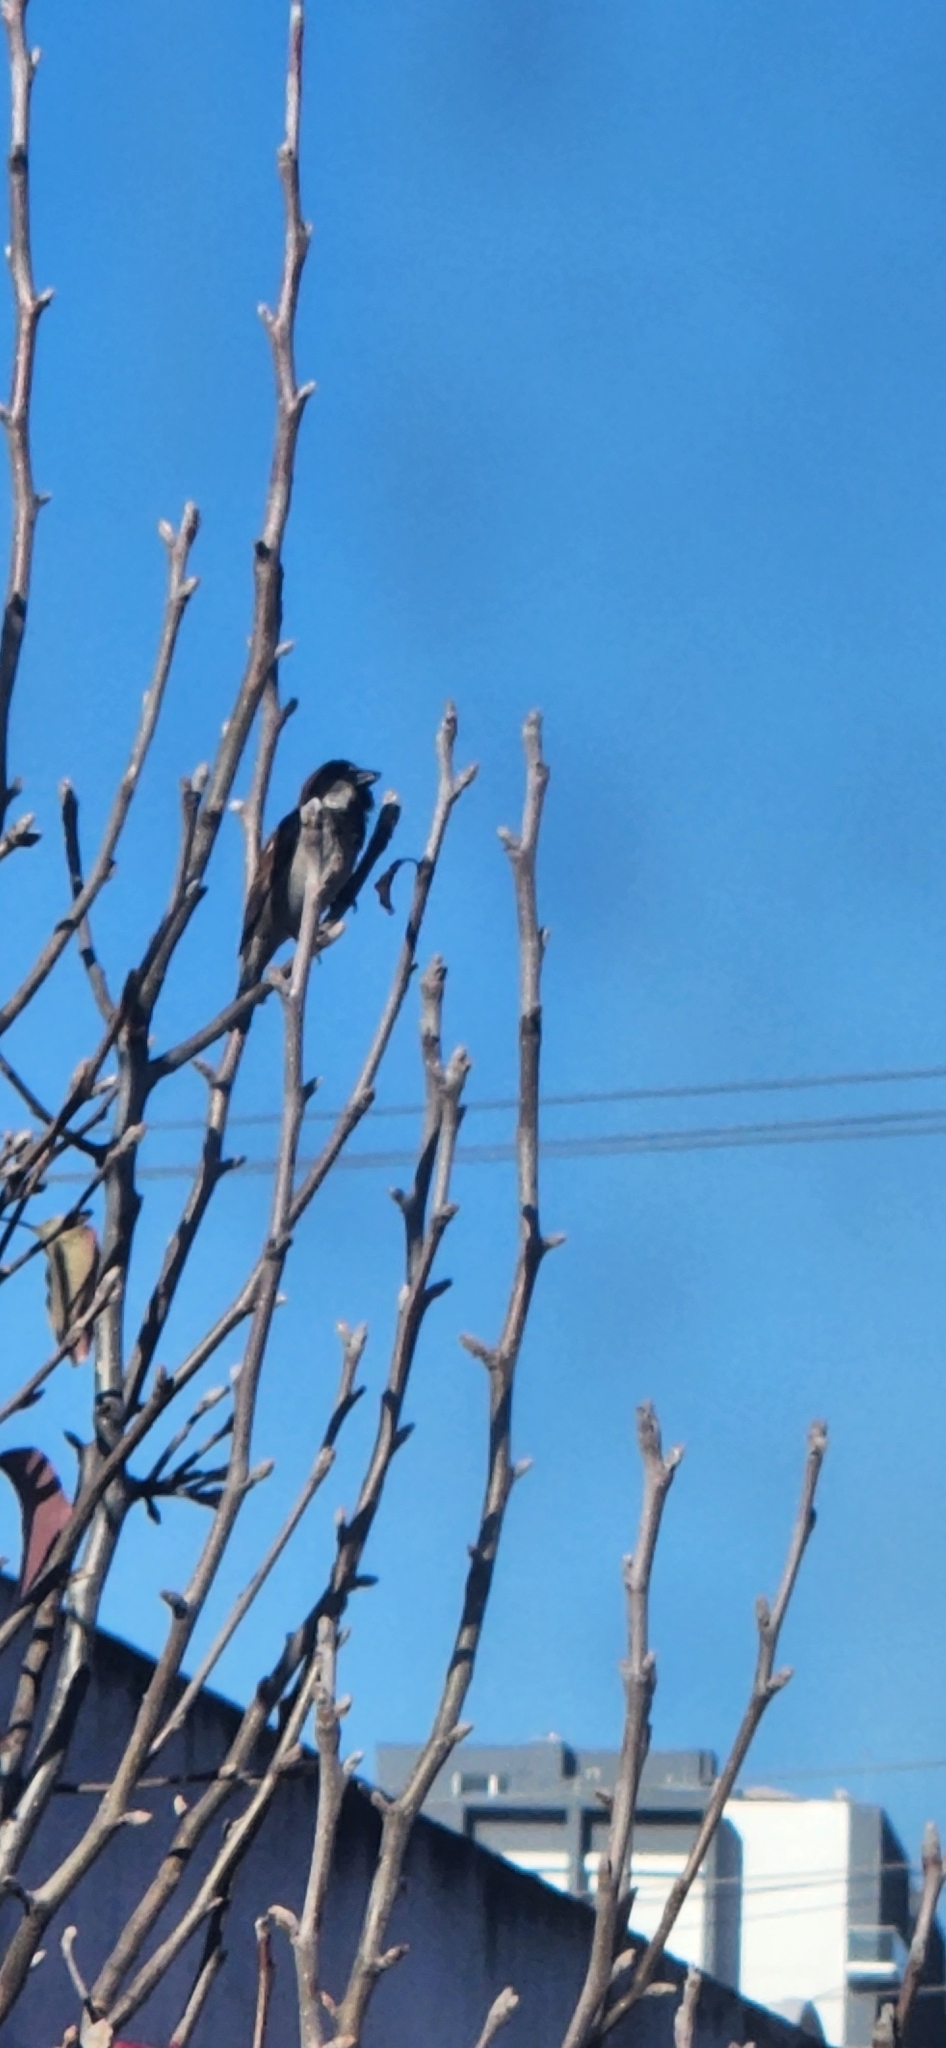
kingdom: Animalia
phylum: Chordata
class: Aves
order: Passeriformes
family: Passeridae
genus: Passer
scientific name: Passer domesticus
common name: House sparrow
